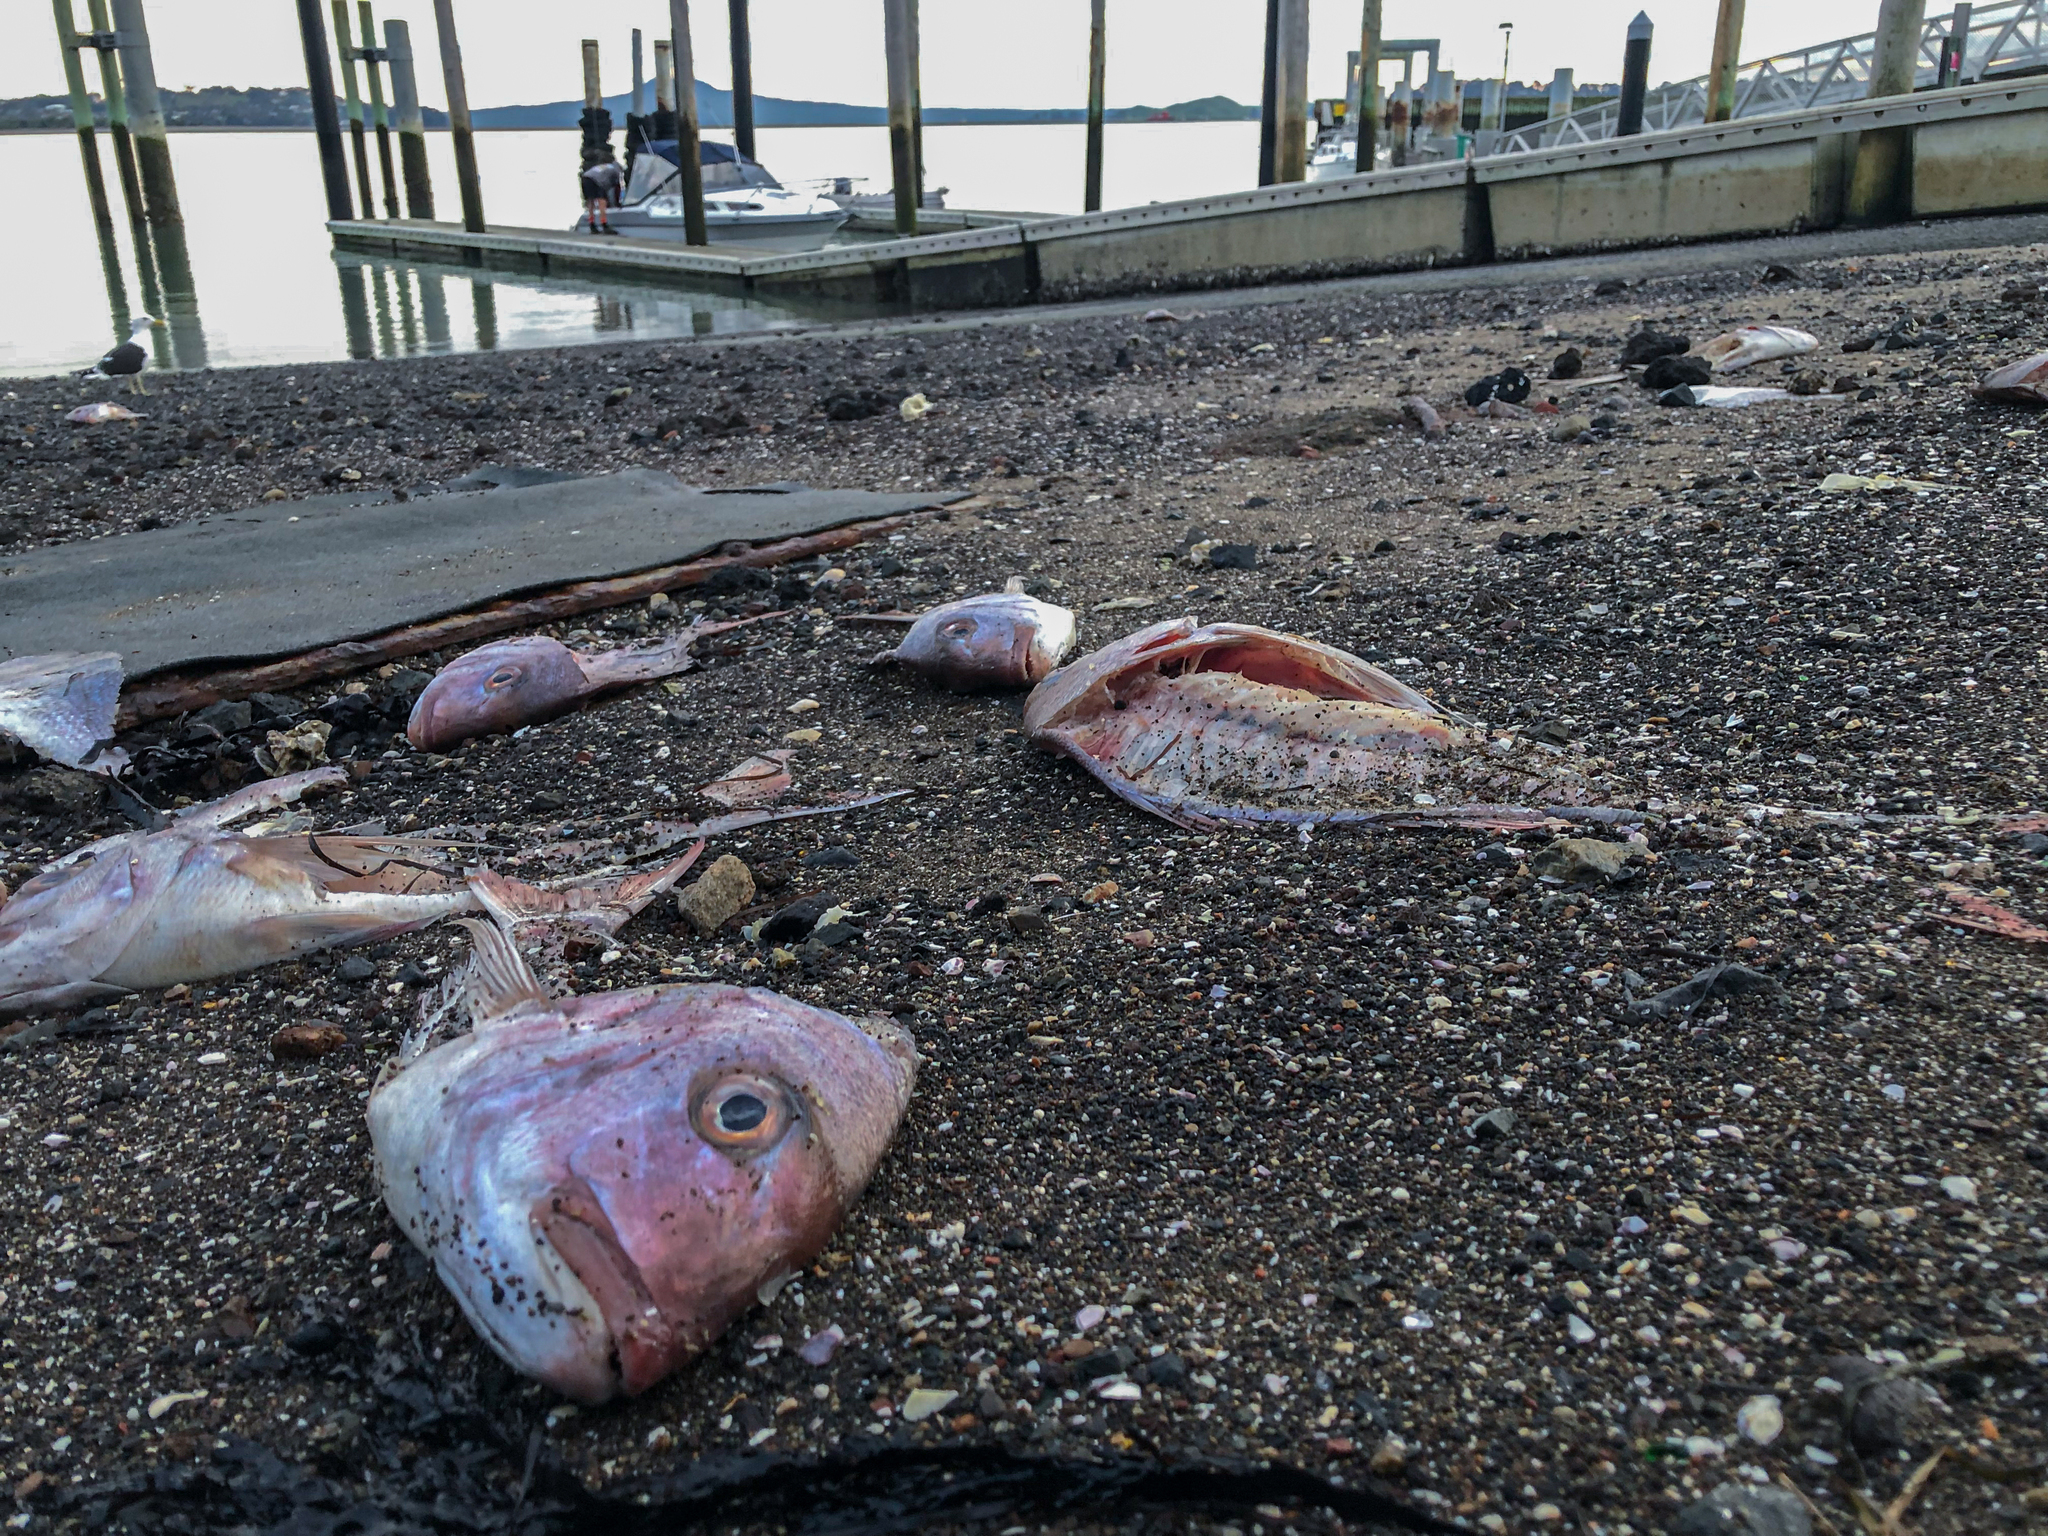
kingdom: Animalia
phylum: Chordata
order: Perciformes
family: Sparidae
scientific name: Sparidae
